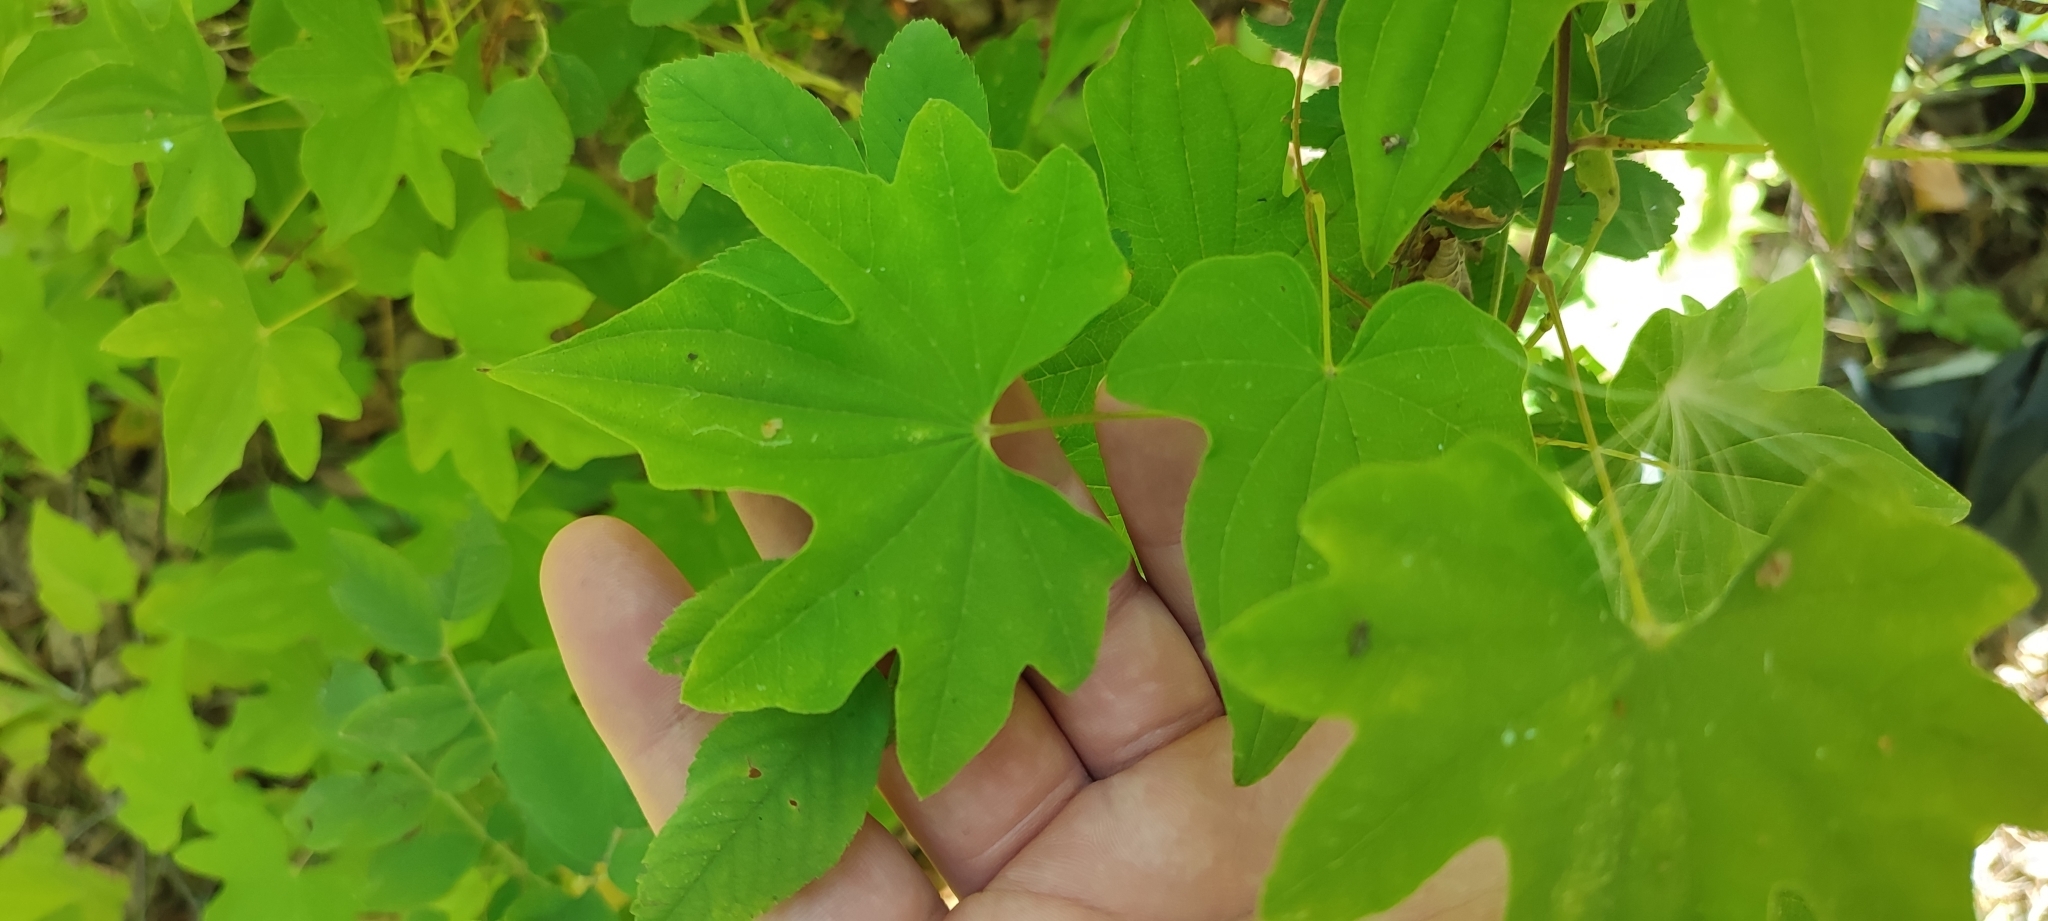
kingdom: Plantae
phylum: Tracheophyta
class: Liliopsida
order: Dioscoreales
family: Dioscoreaceae
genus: Dioscorea
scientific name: Dioscorea nipponica
